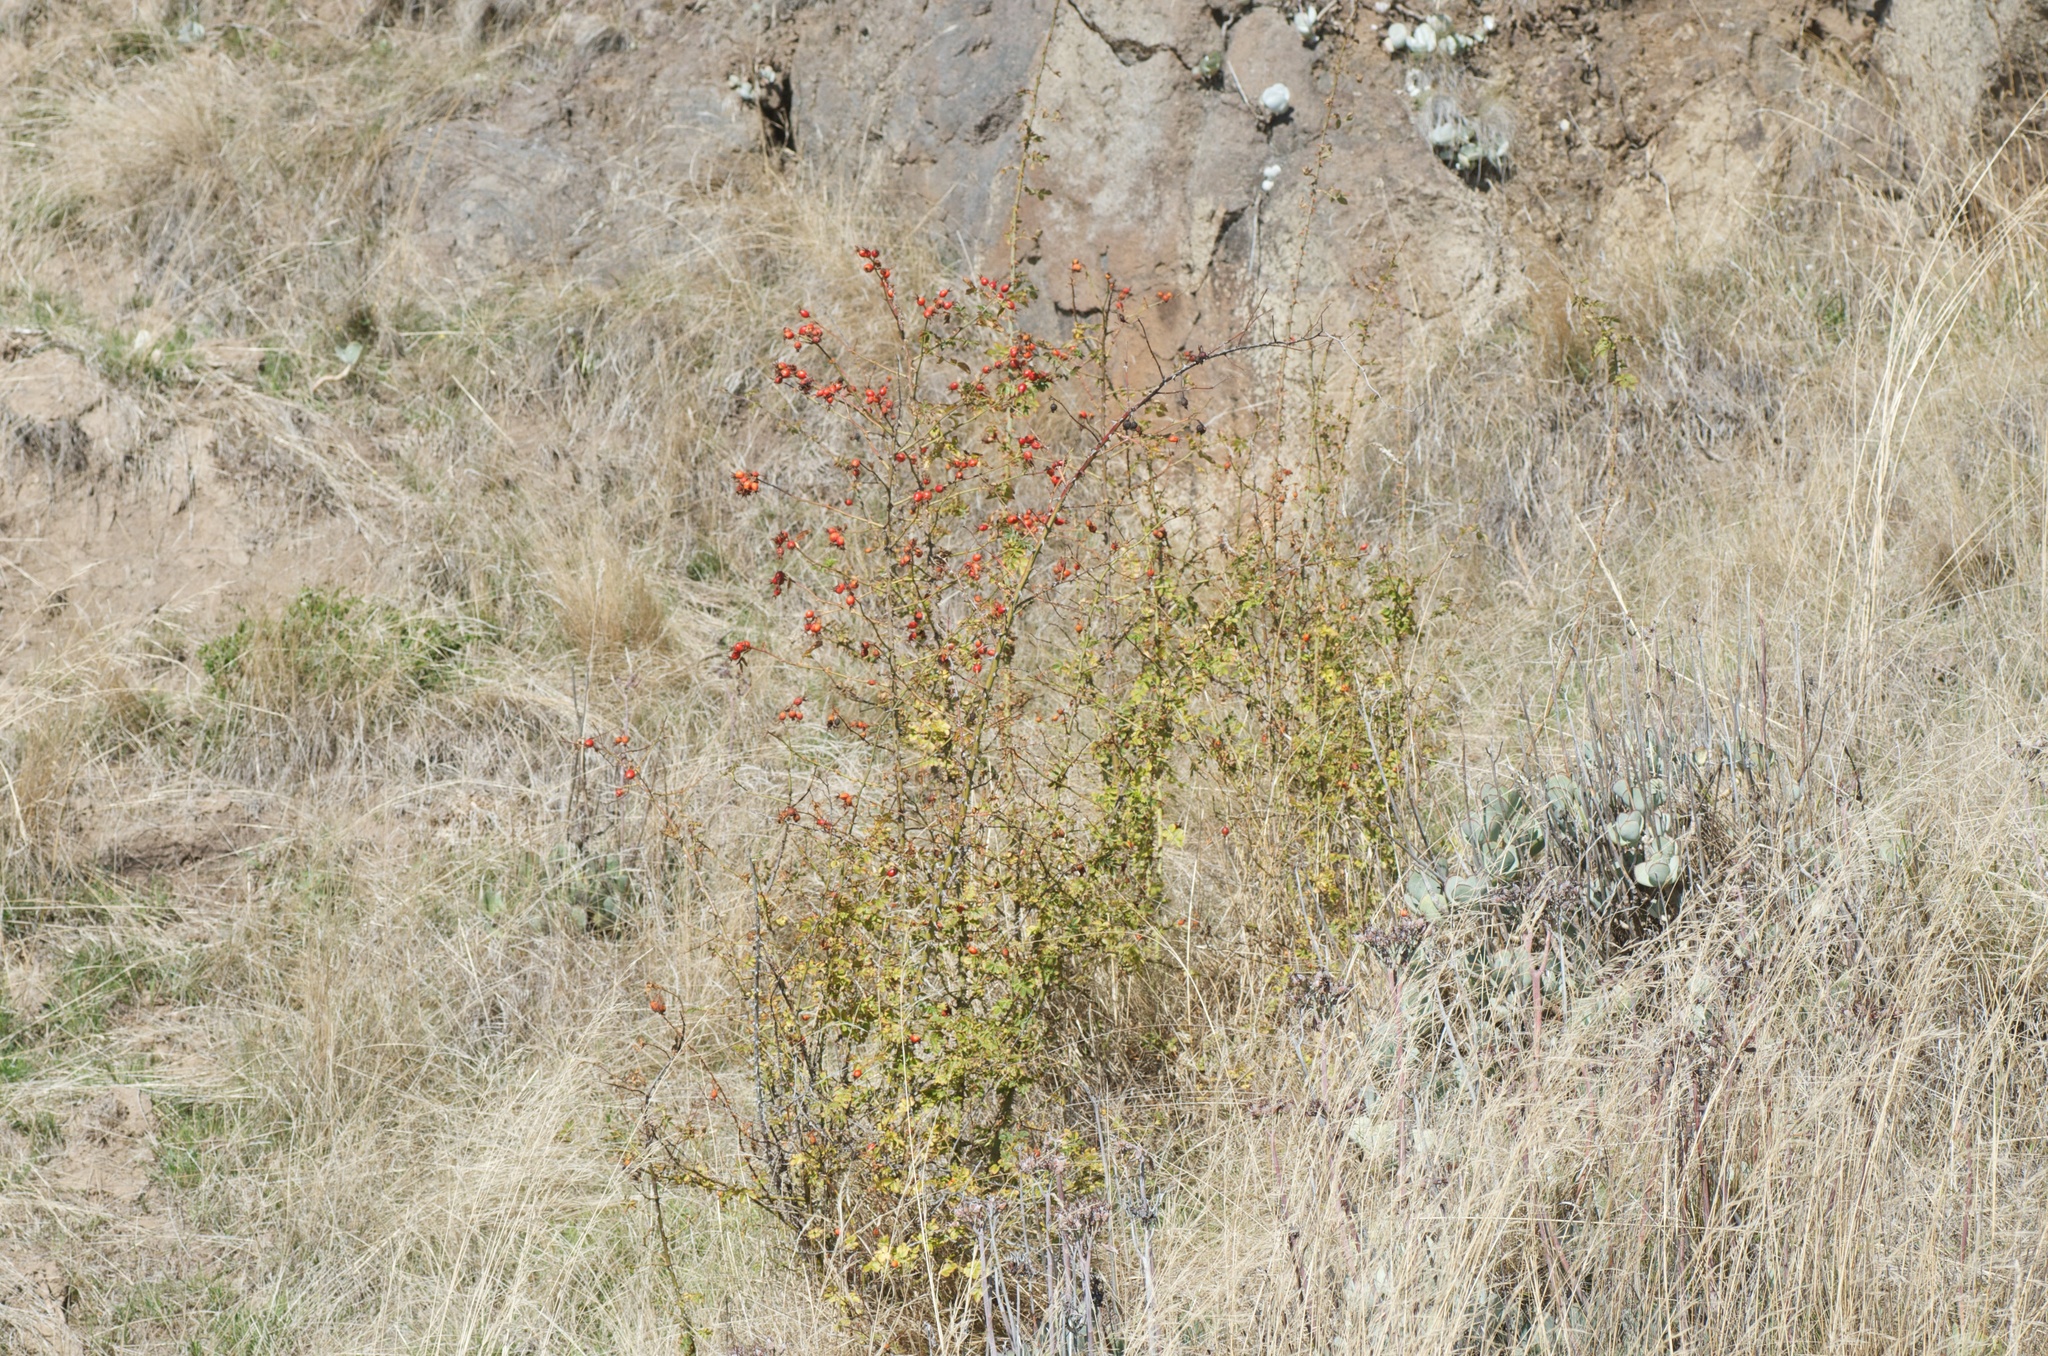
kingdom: Plantae
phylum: Tracheophyta
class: Magnoliopsida
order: Rosales
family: Rosaceae
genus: Rosa
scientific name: Rosa rubiginosa
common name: Sweet-briar
